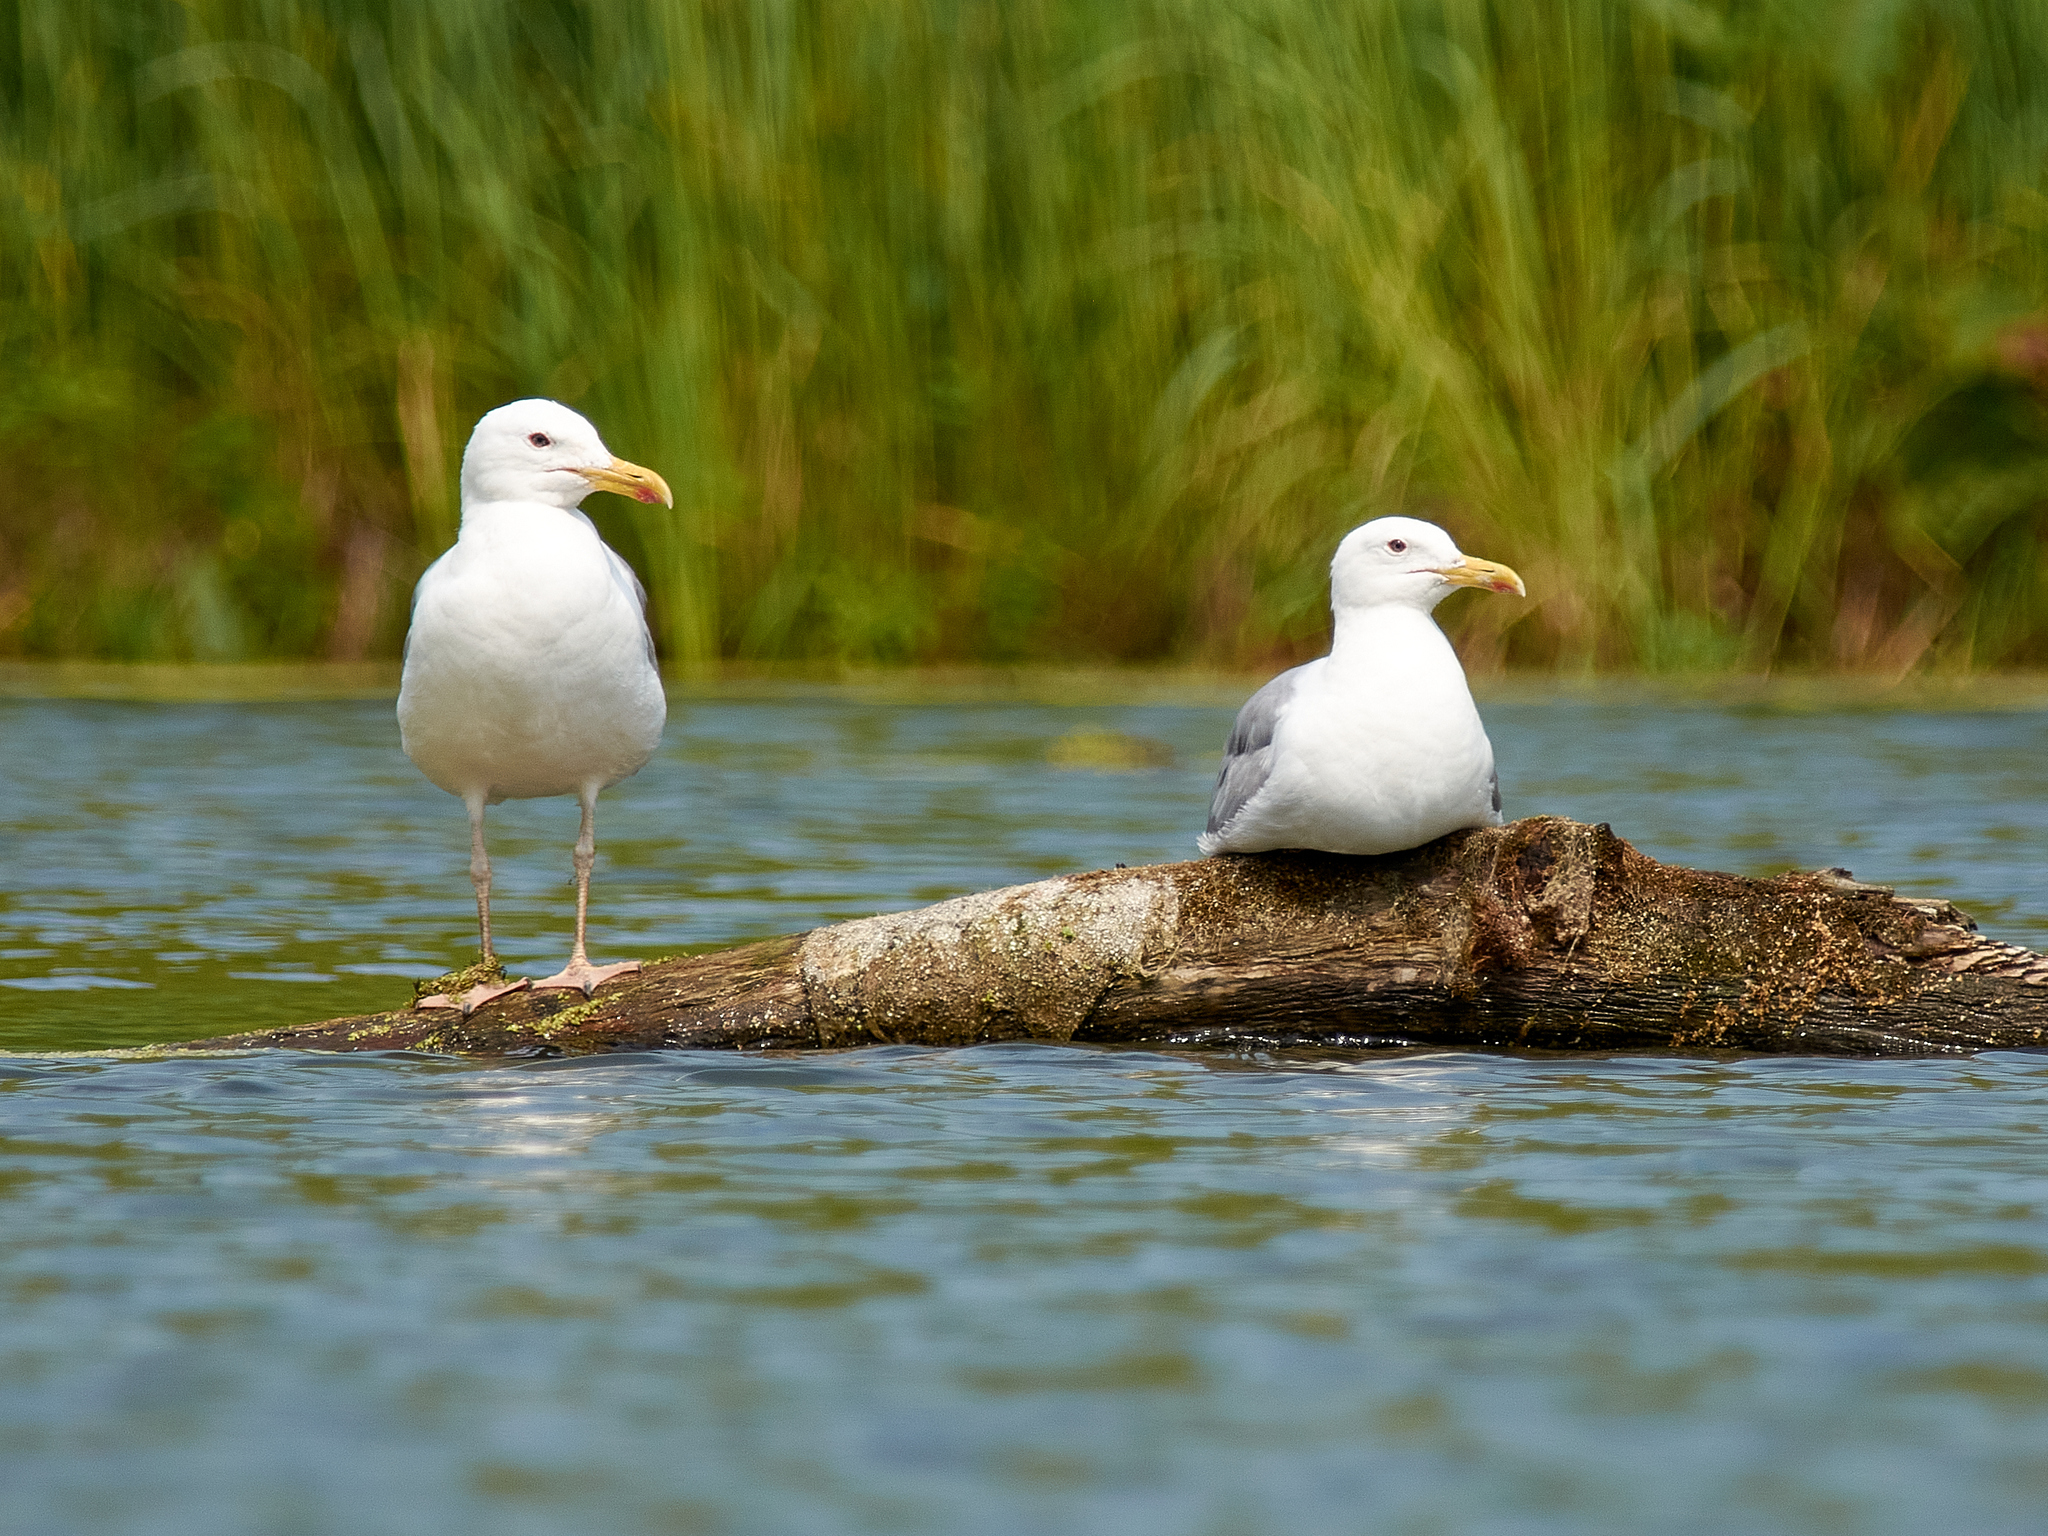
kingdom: Animalia
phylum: Chordata
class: Aves
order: Charadriiformes
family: Laridae
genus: Larus
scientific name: Larus cachinnans
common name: Caspian gull
